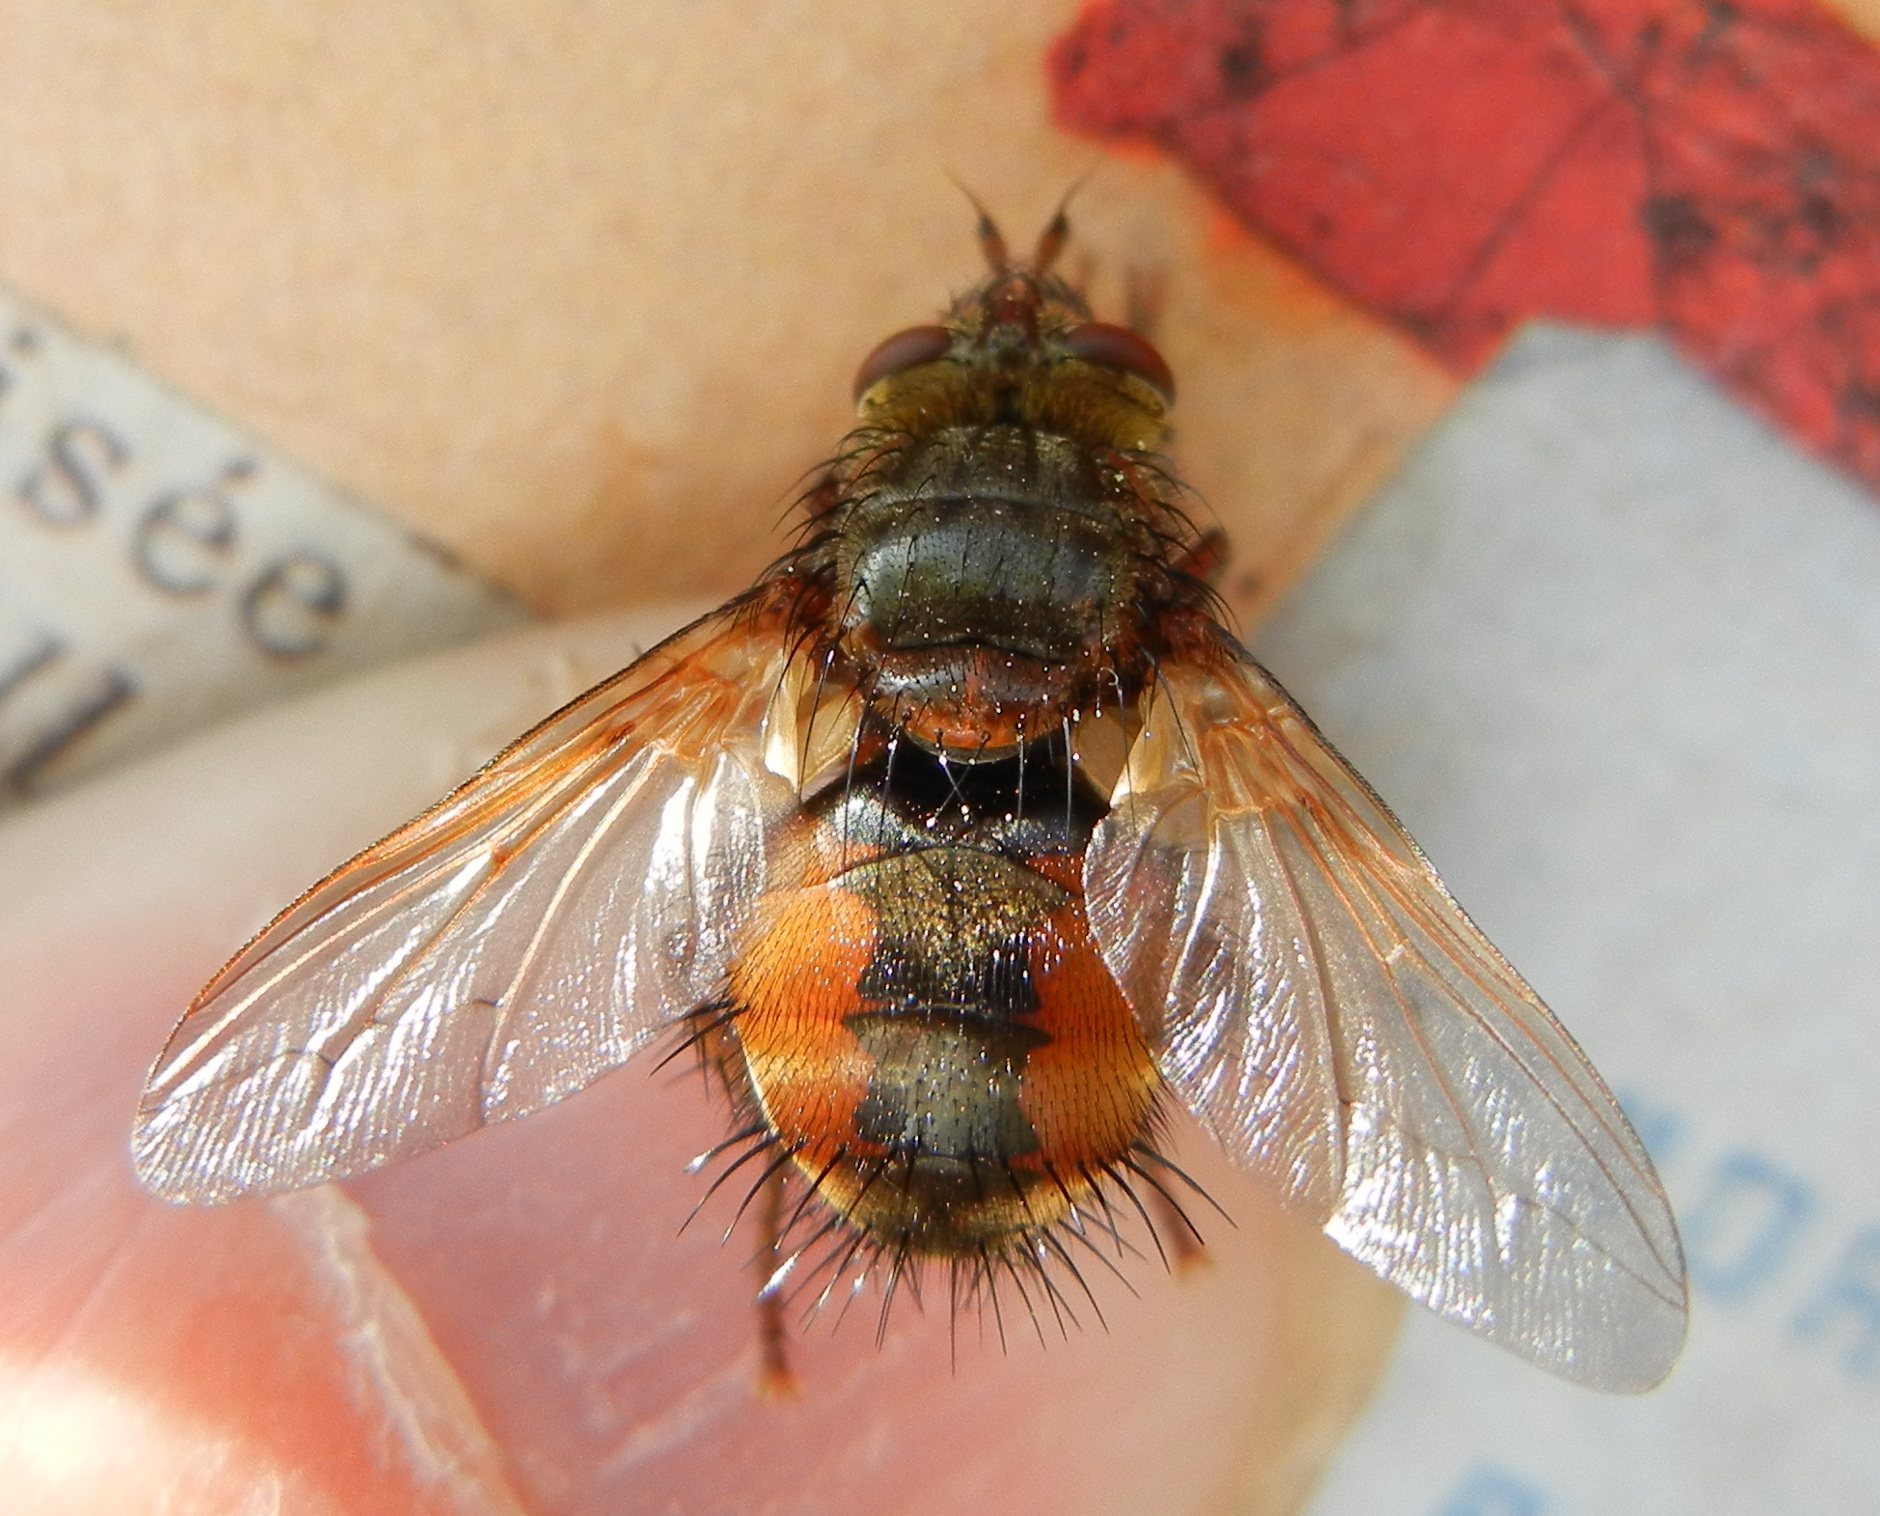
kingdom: Animalia
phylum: Arthropoda
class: Insecta
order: Diptera
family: Tachinidae
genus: Tachina
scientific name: Tachina fera
